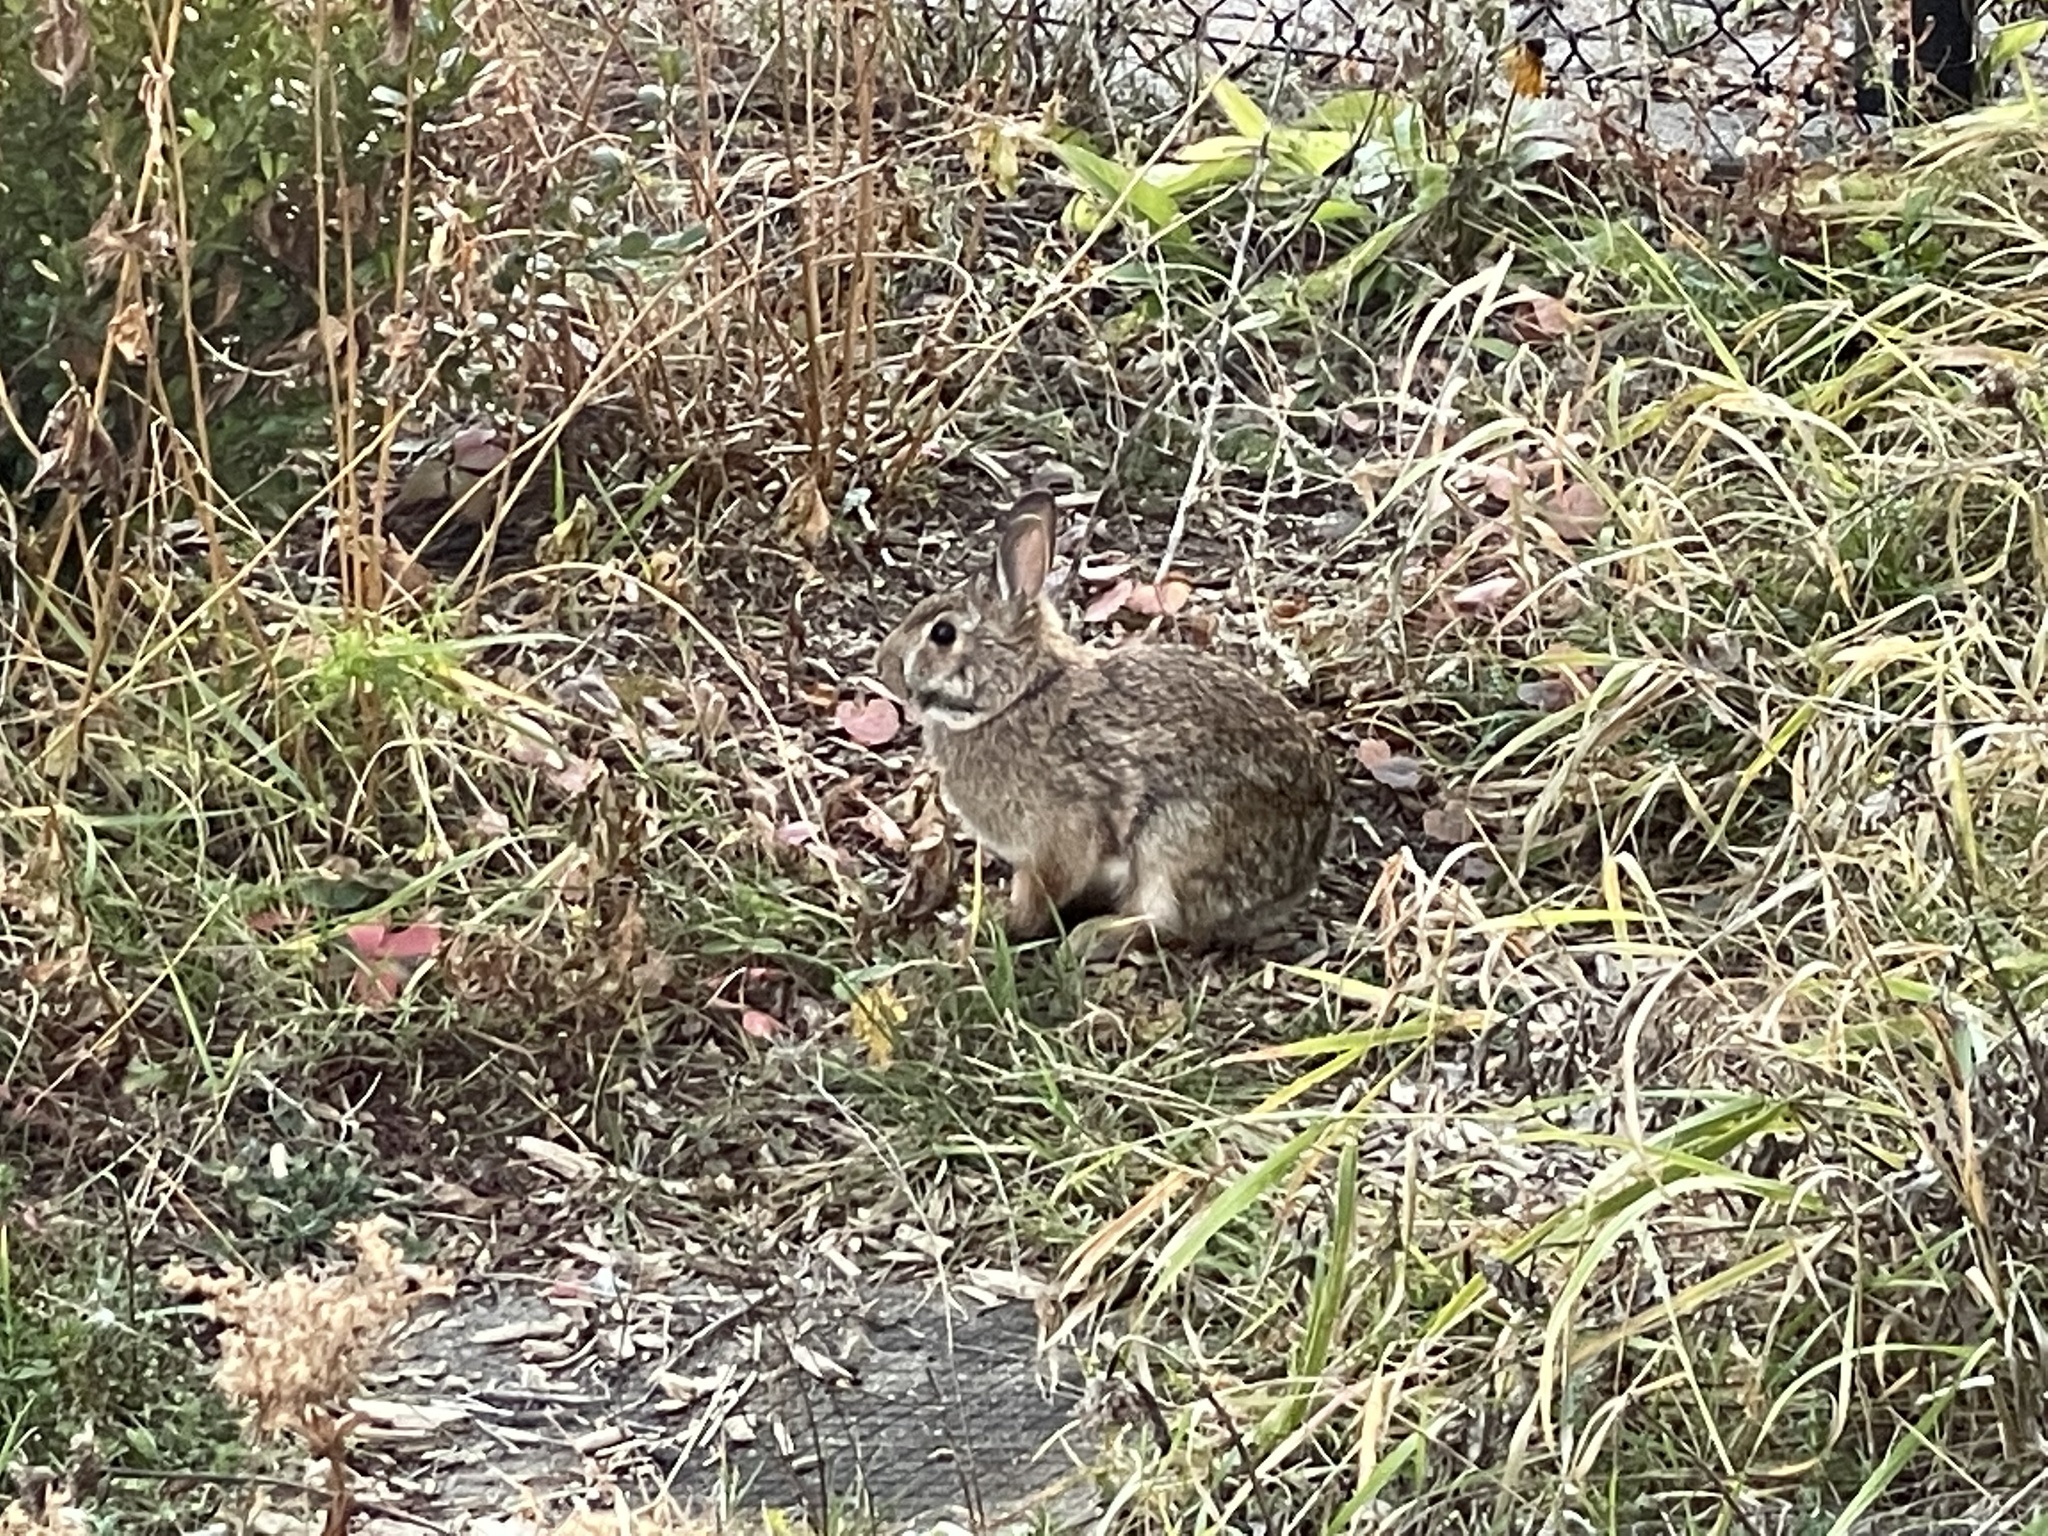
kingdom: Animalia
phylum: Chordata
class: Mammalia
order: Lagomorpha
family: Leporidae
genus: Sylvilagus
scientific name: Sylvilagus floridanus
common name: Eastern cottontail
